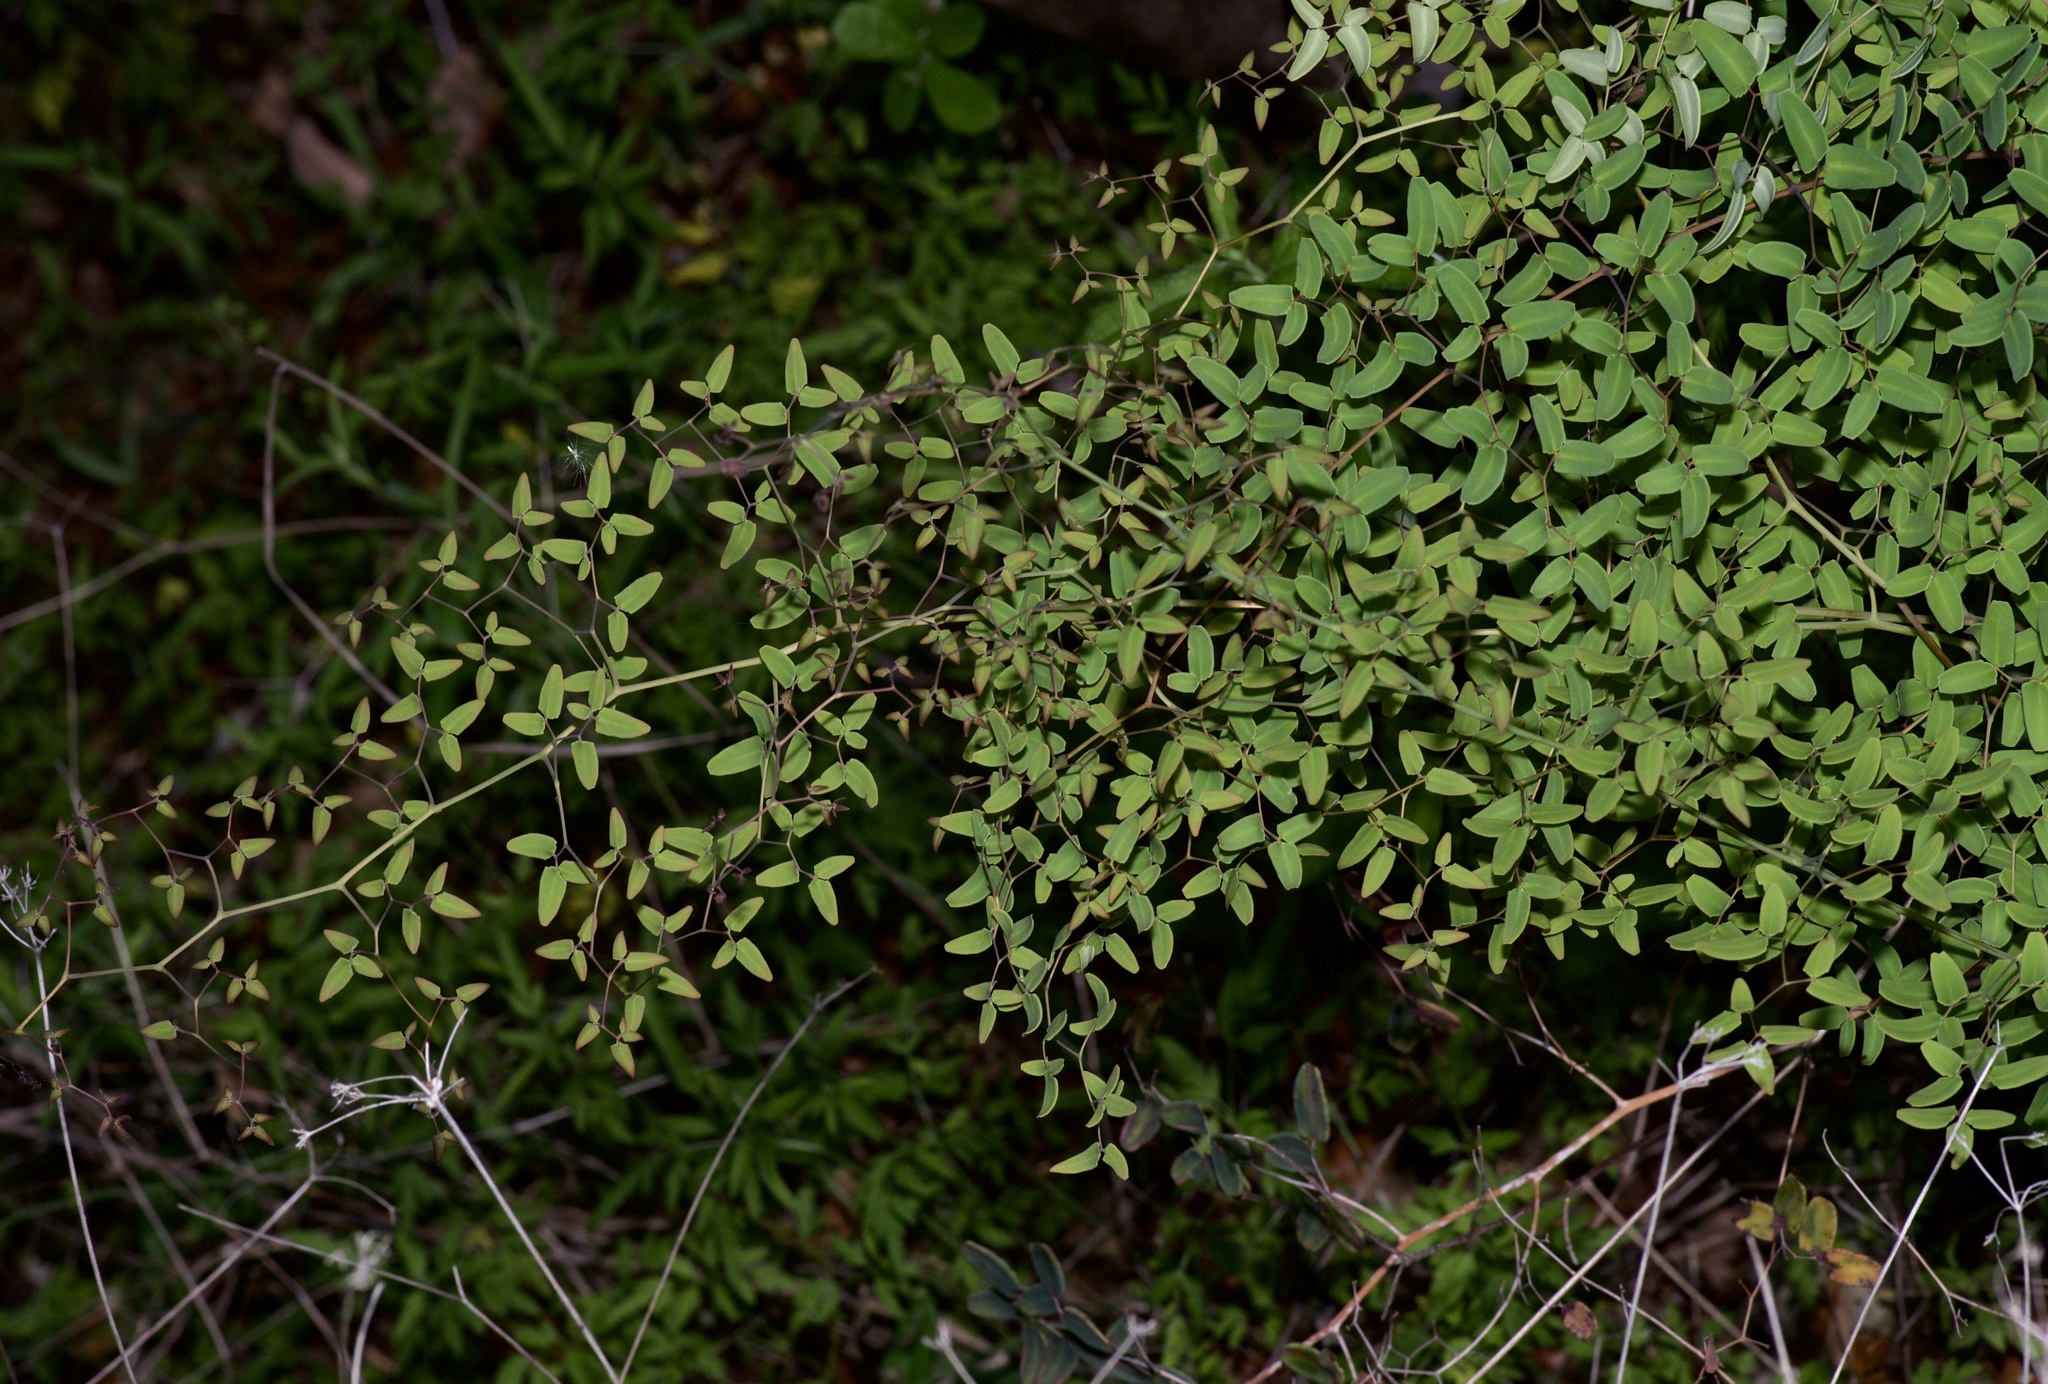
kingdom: Plantae
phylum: Tracheophyta
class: Polypodiopsida
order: Polypodiales
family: Pteridaceae
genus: Pellaea
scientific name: Pellaea ovata
